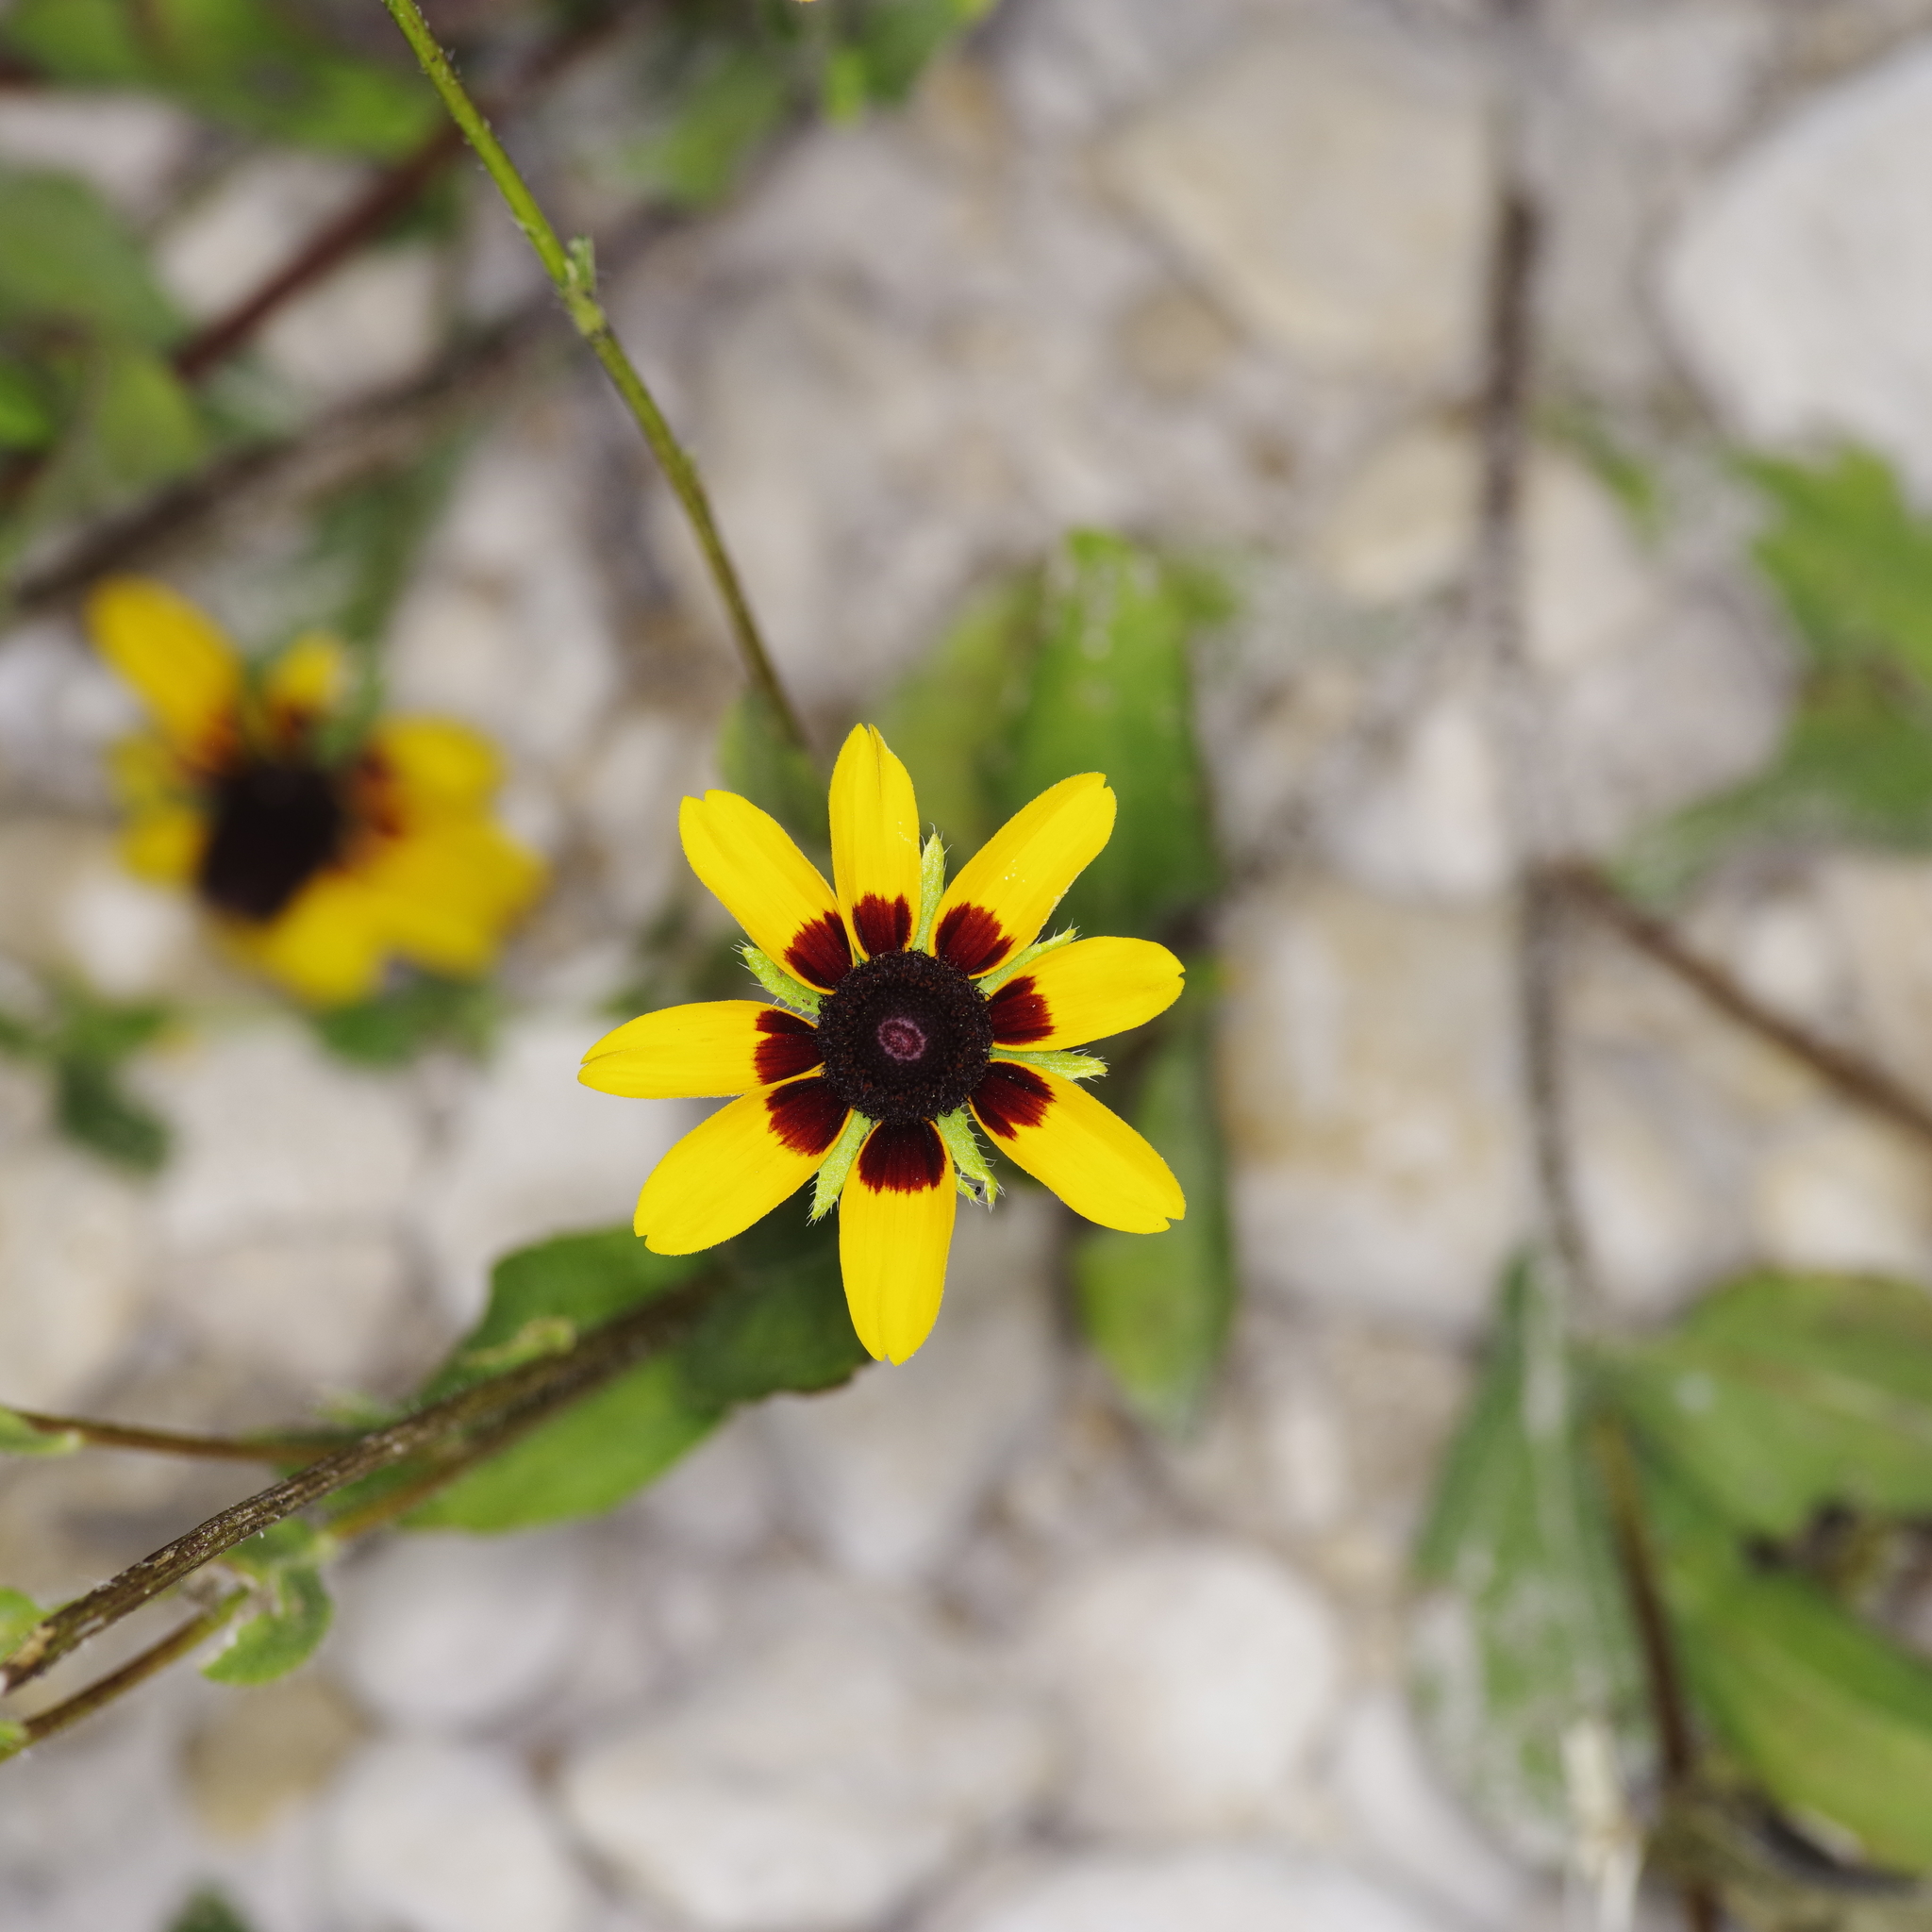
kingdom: Plantae
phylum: Tracheophyta
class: Magnoliopsida
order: Asterales
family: Asteraceae
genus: Rudbeckia
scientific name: Rudbeckia hirta
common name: Black-eyed-susan
